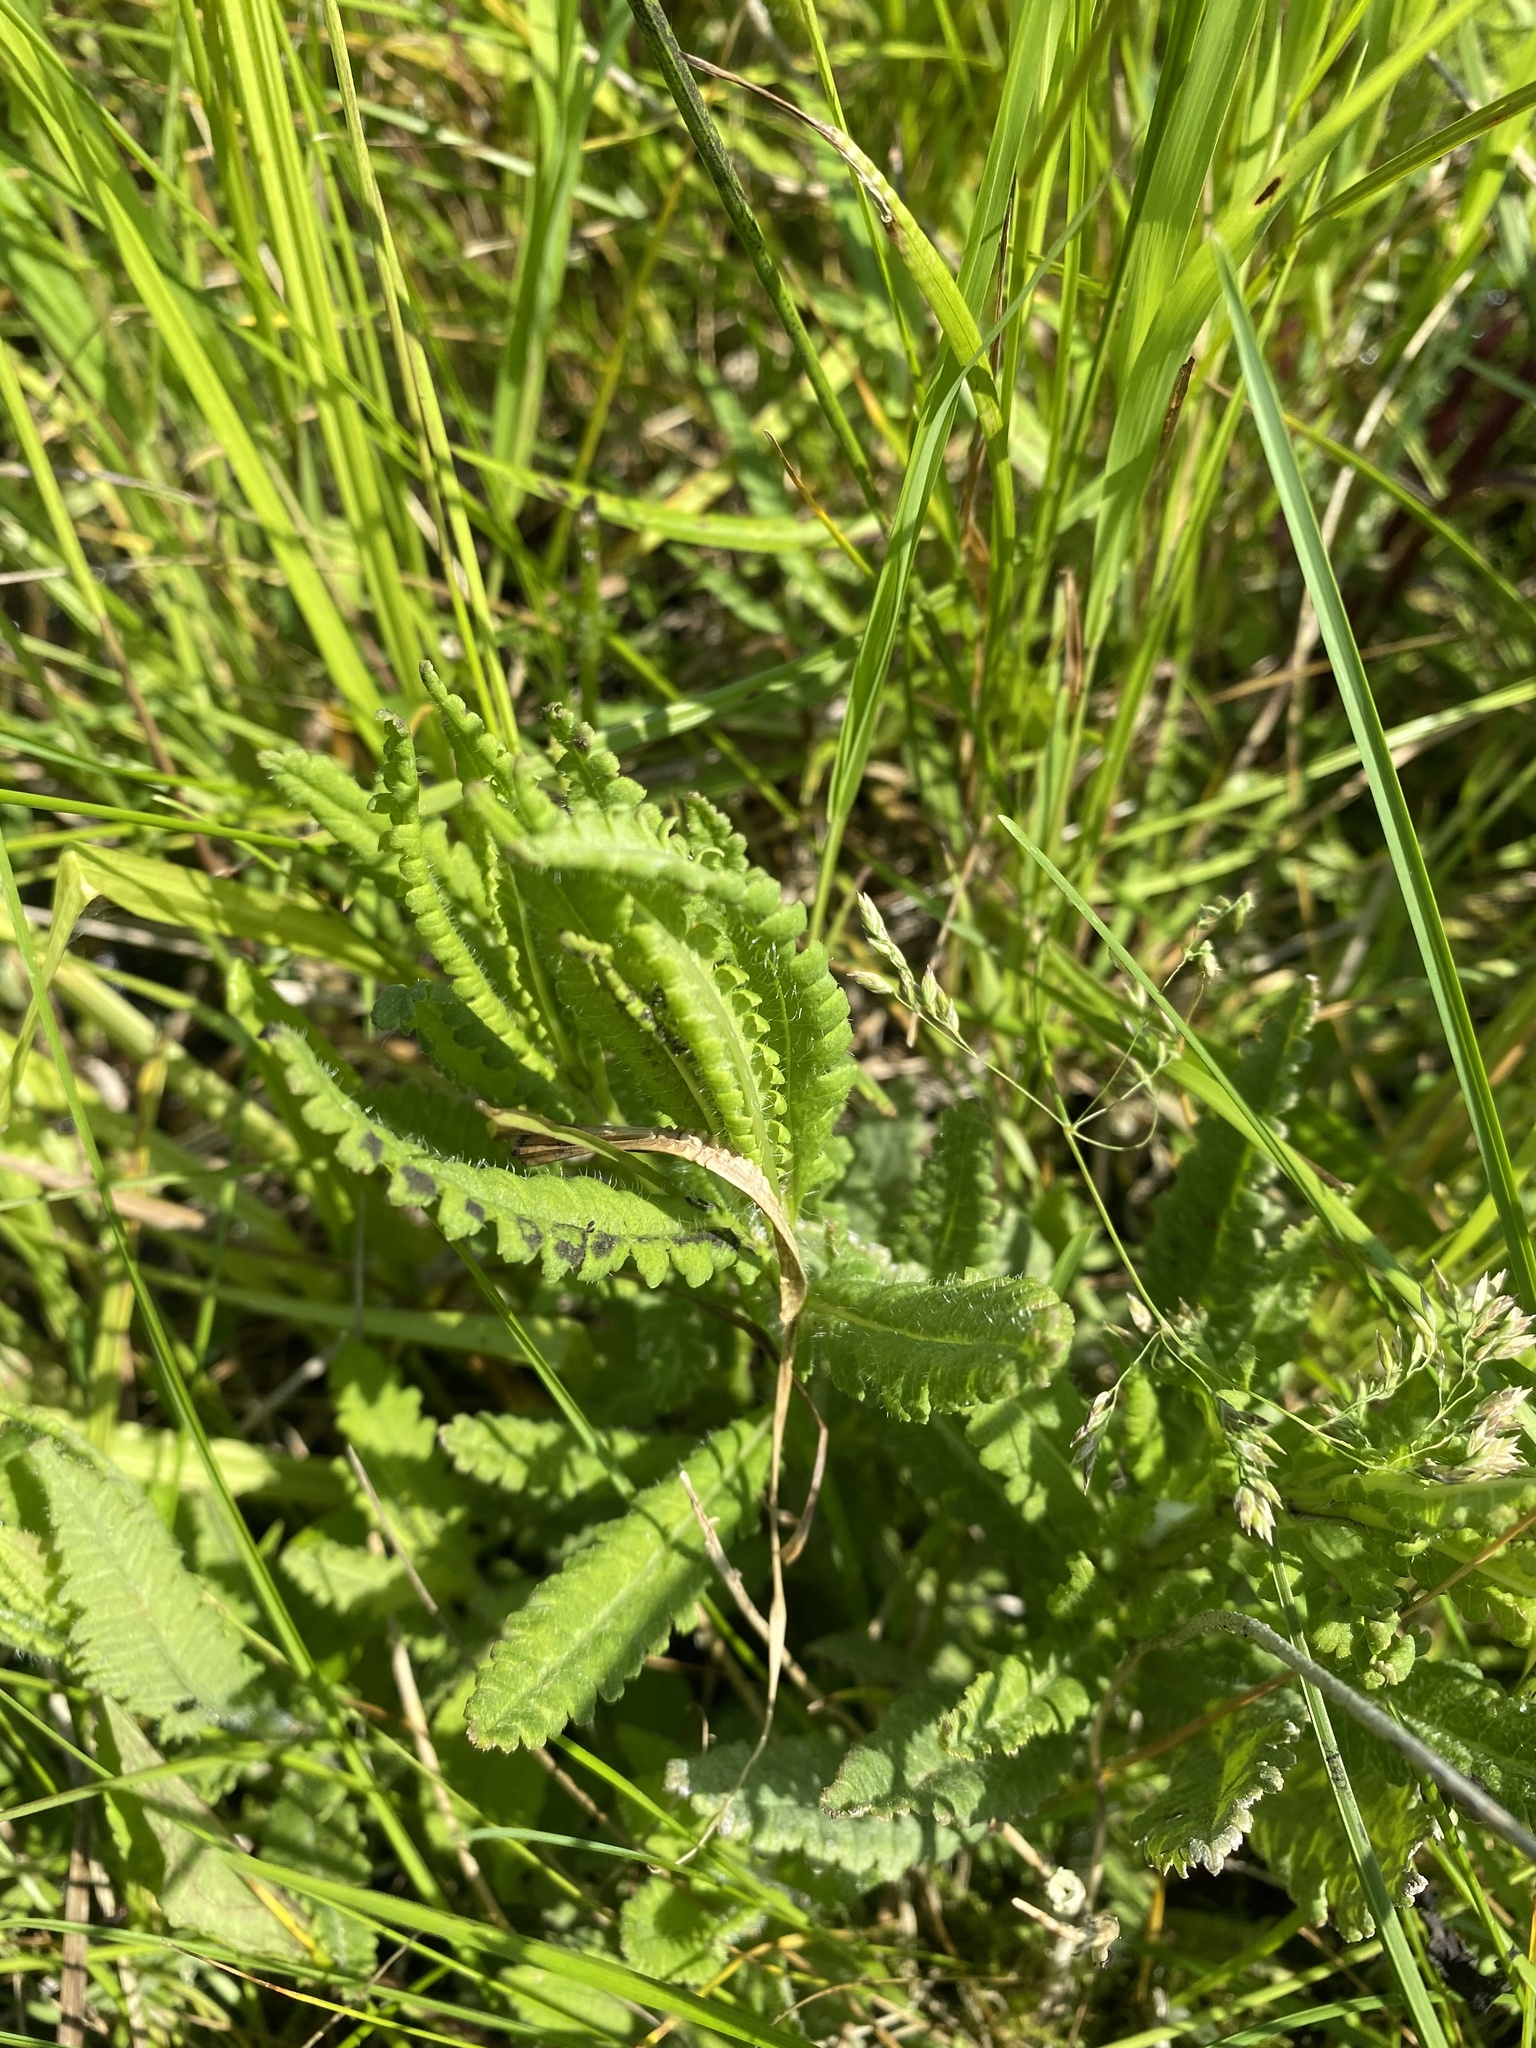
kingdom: Plantae
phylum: Tracheophyta
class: Magnoliopsida
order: Lamiales
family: Orobanchaceae
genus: Pedicularis
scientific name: Pedicularis lanceolata
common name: Swamp lousewort
